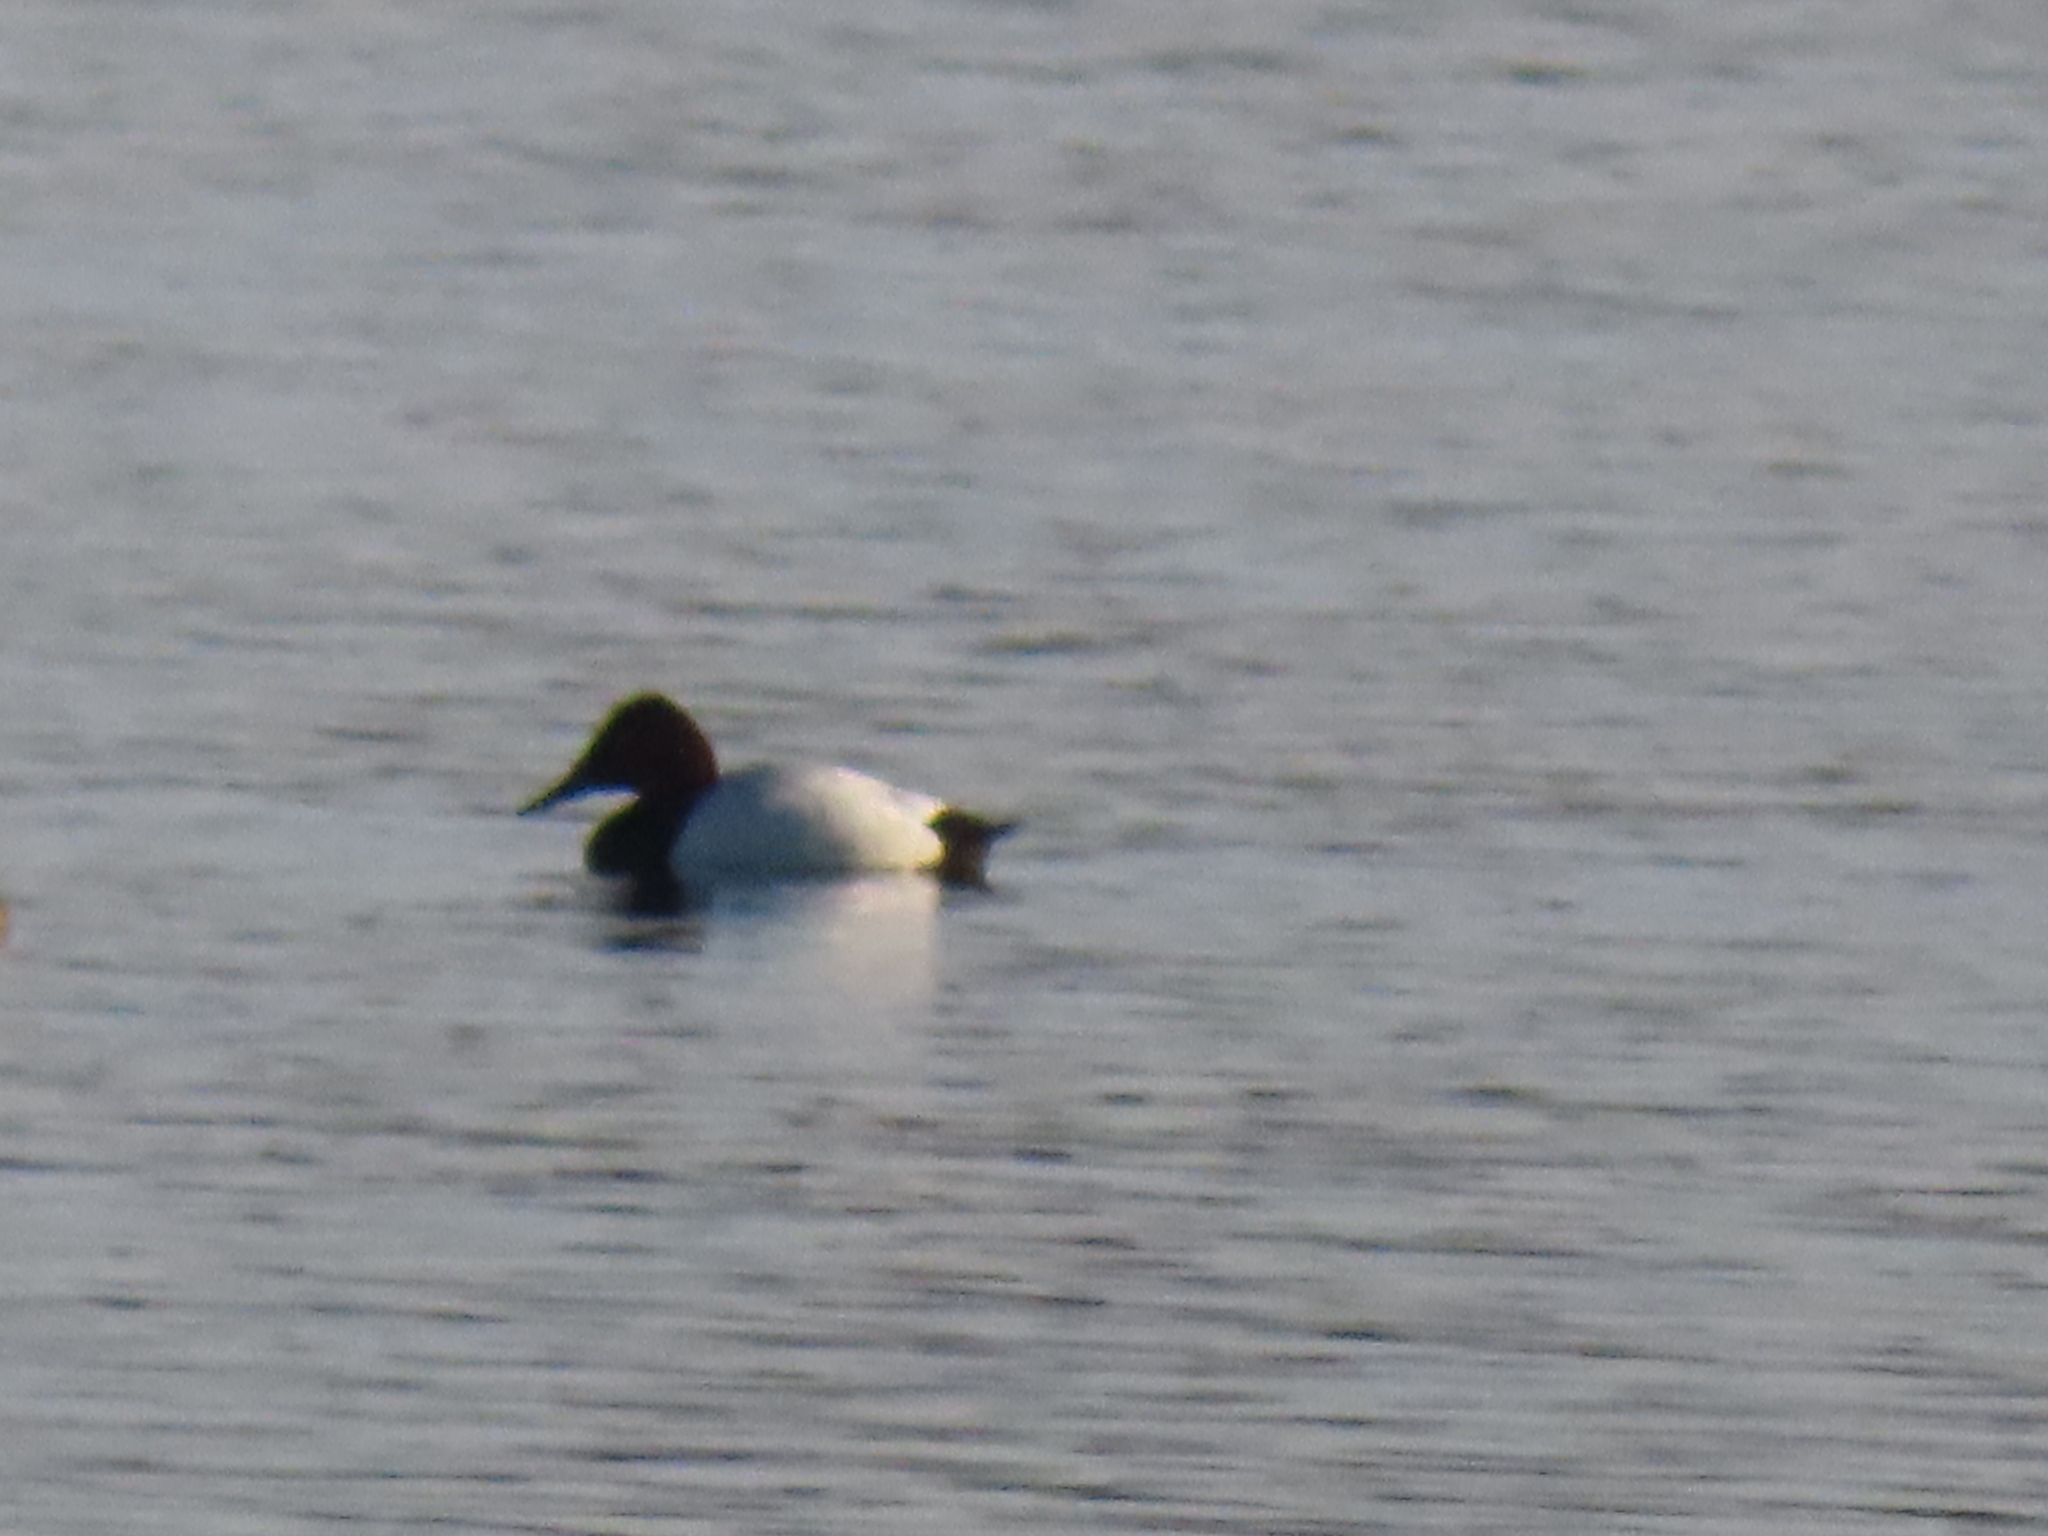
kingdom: Animalia
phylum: Chordata
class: Aves
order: Anseriformes
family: Anatidae
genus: Aythya
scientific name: Aythya valisineria
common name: Canvasback
